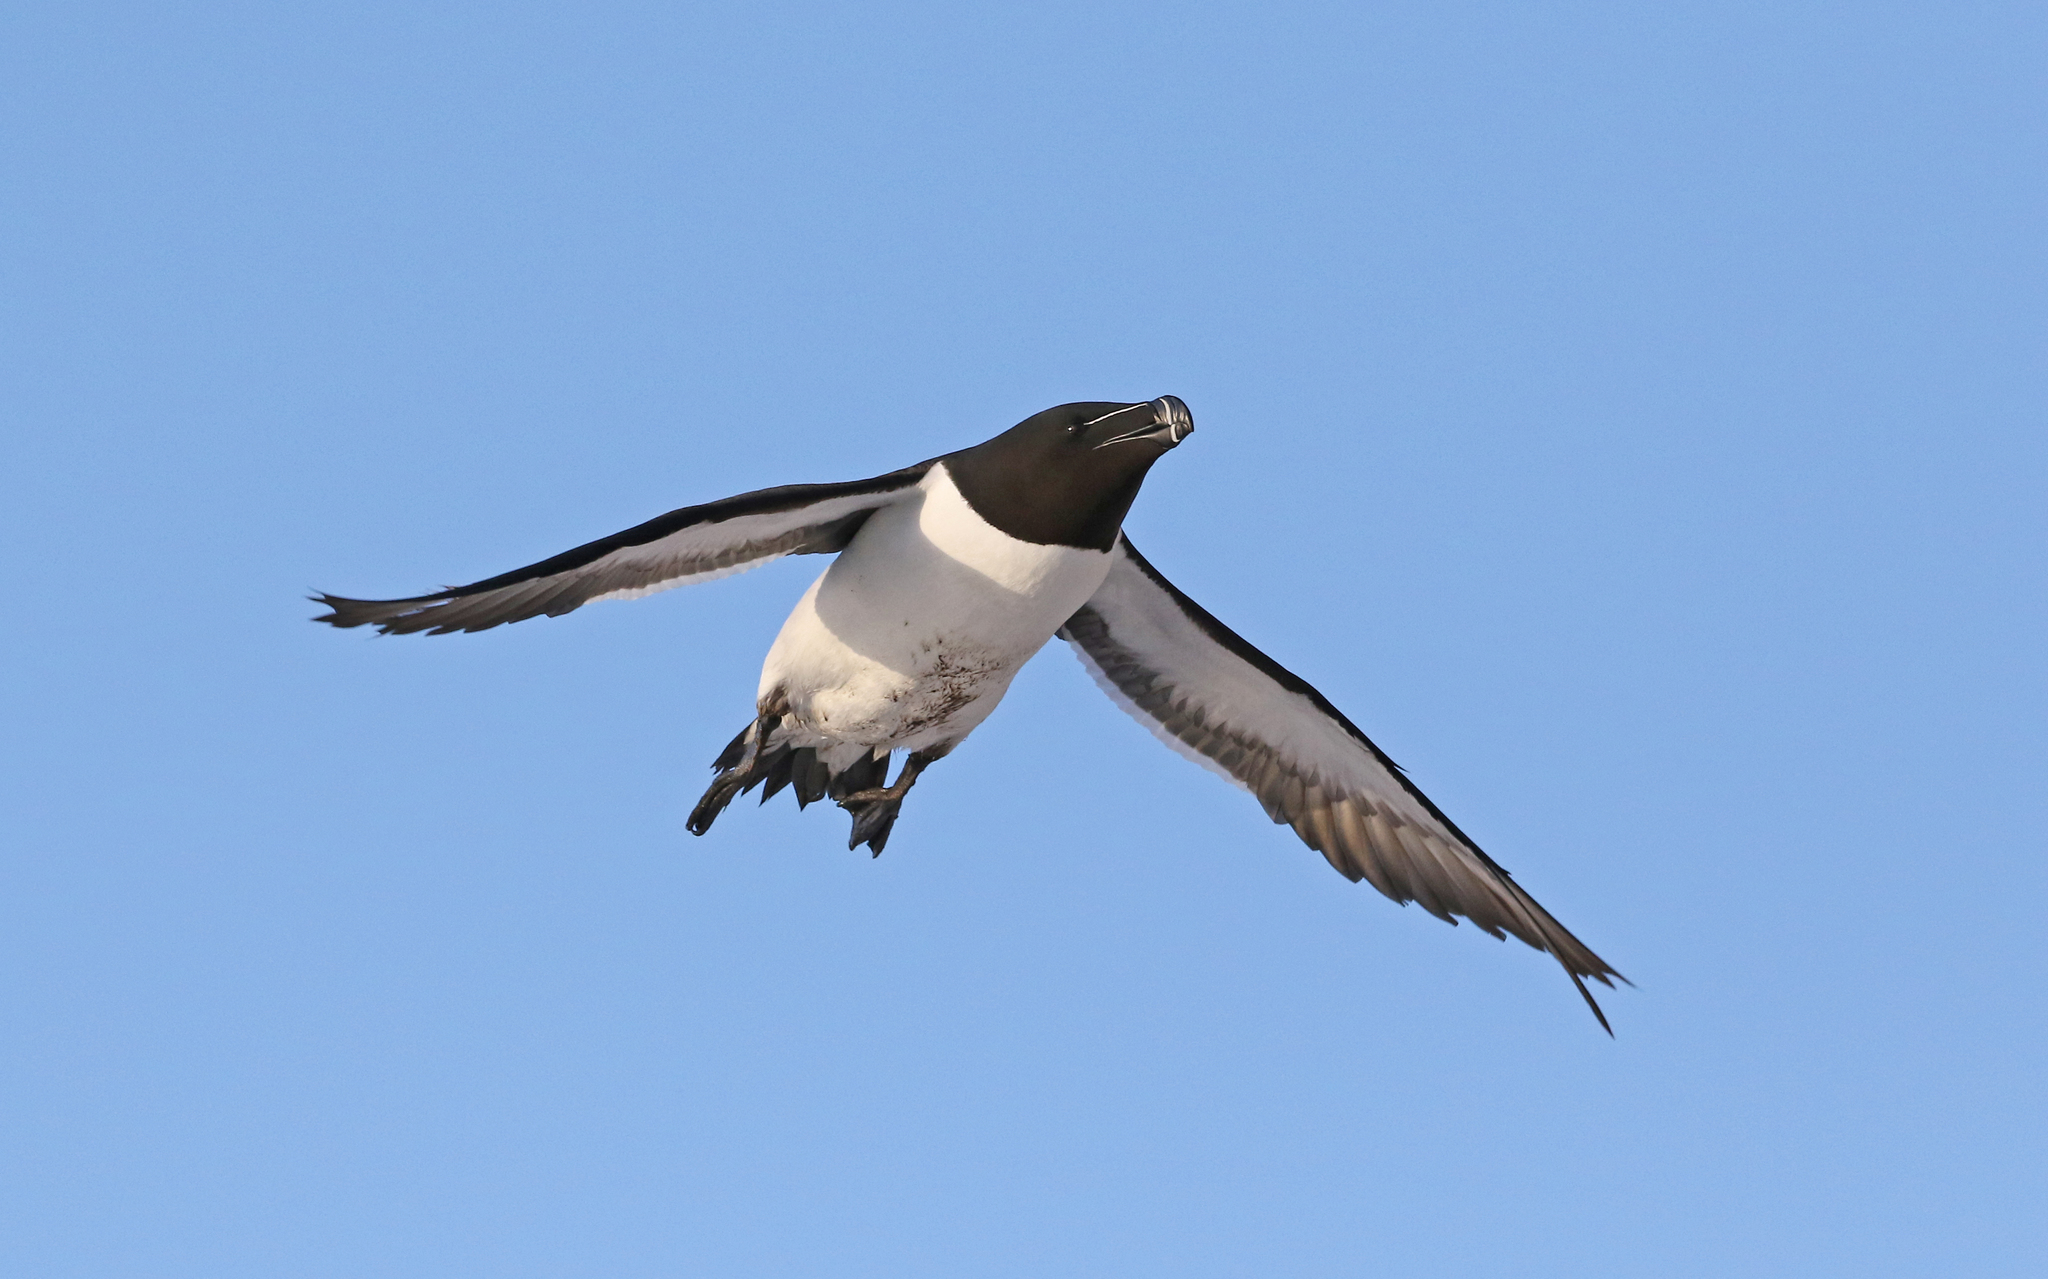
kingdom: Animalia
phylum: Chordata
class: Aves
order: Charadriiformes
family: Alcidae
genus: Alca
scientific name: Alca torda
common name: Razorbill
